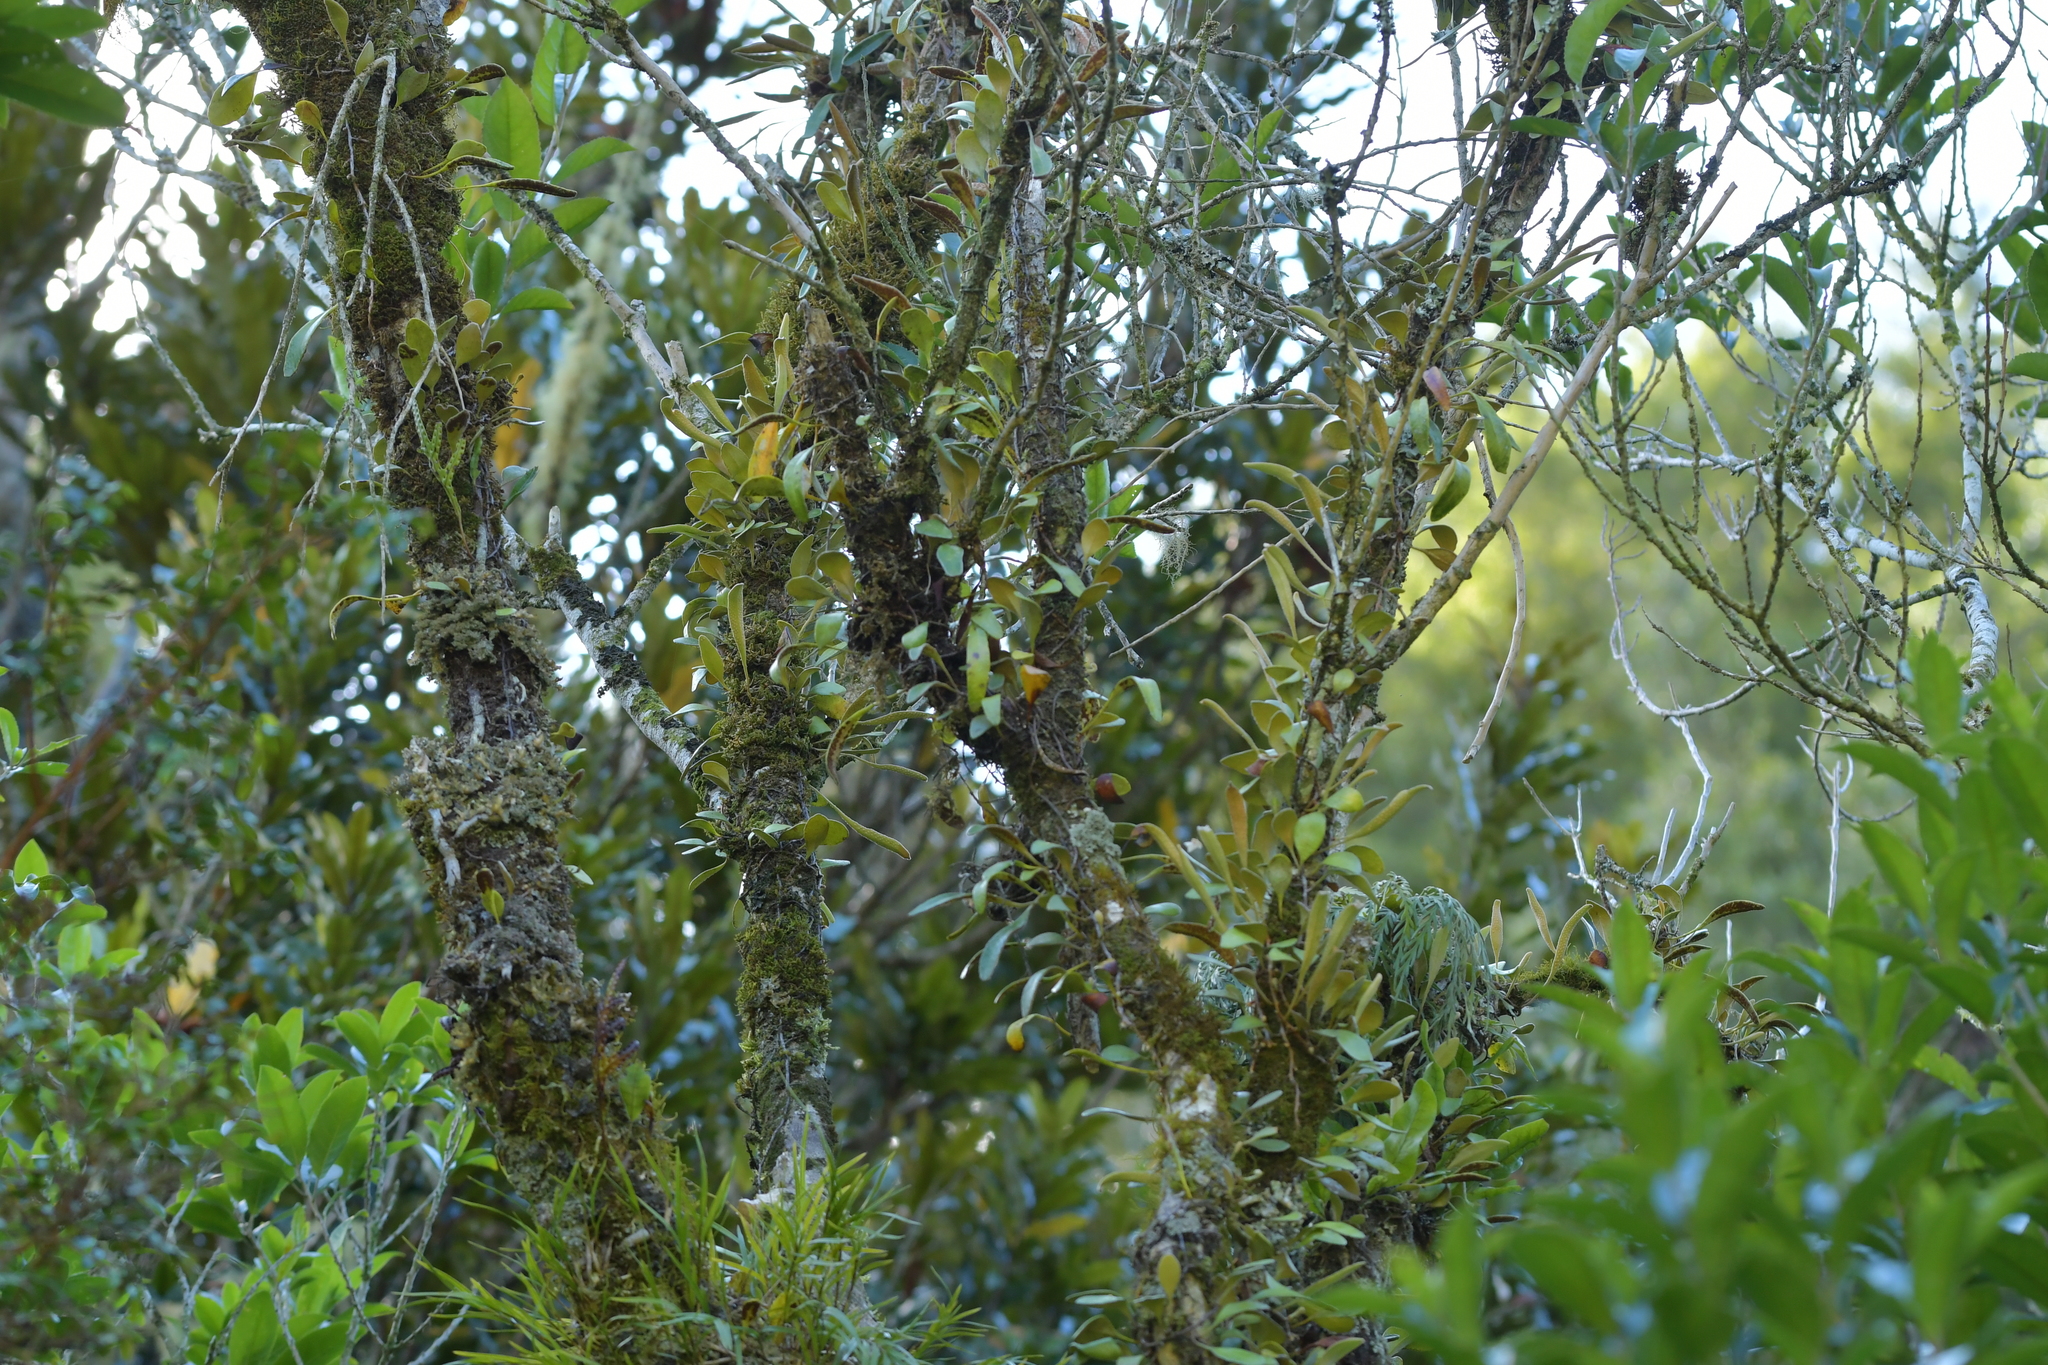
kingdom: Plantae
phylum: Tracheophyta
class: Polypodiopsida
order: Polypodiales
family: Polypodiaceae
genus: Pyrrosia
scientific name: Pyrrosia eleagnifolia
